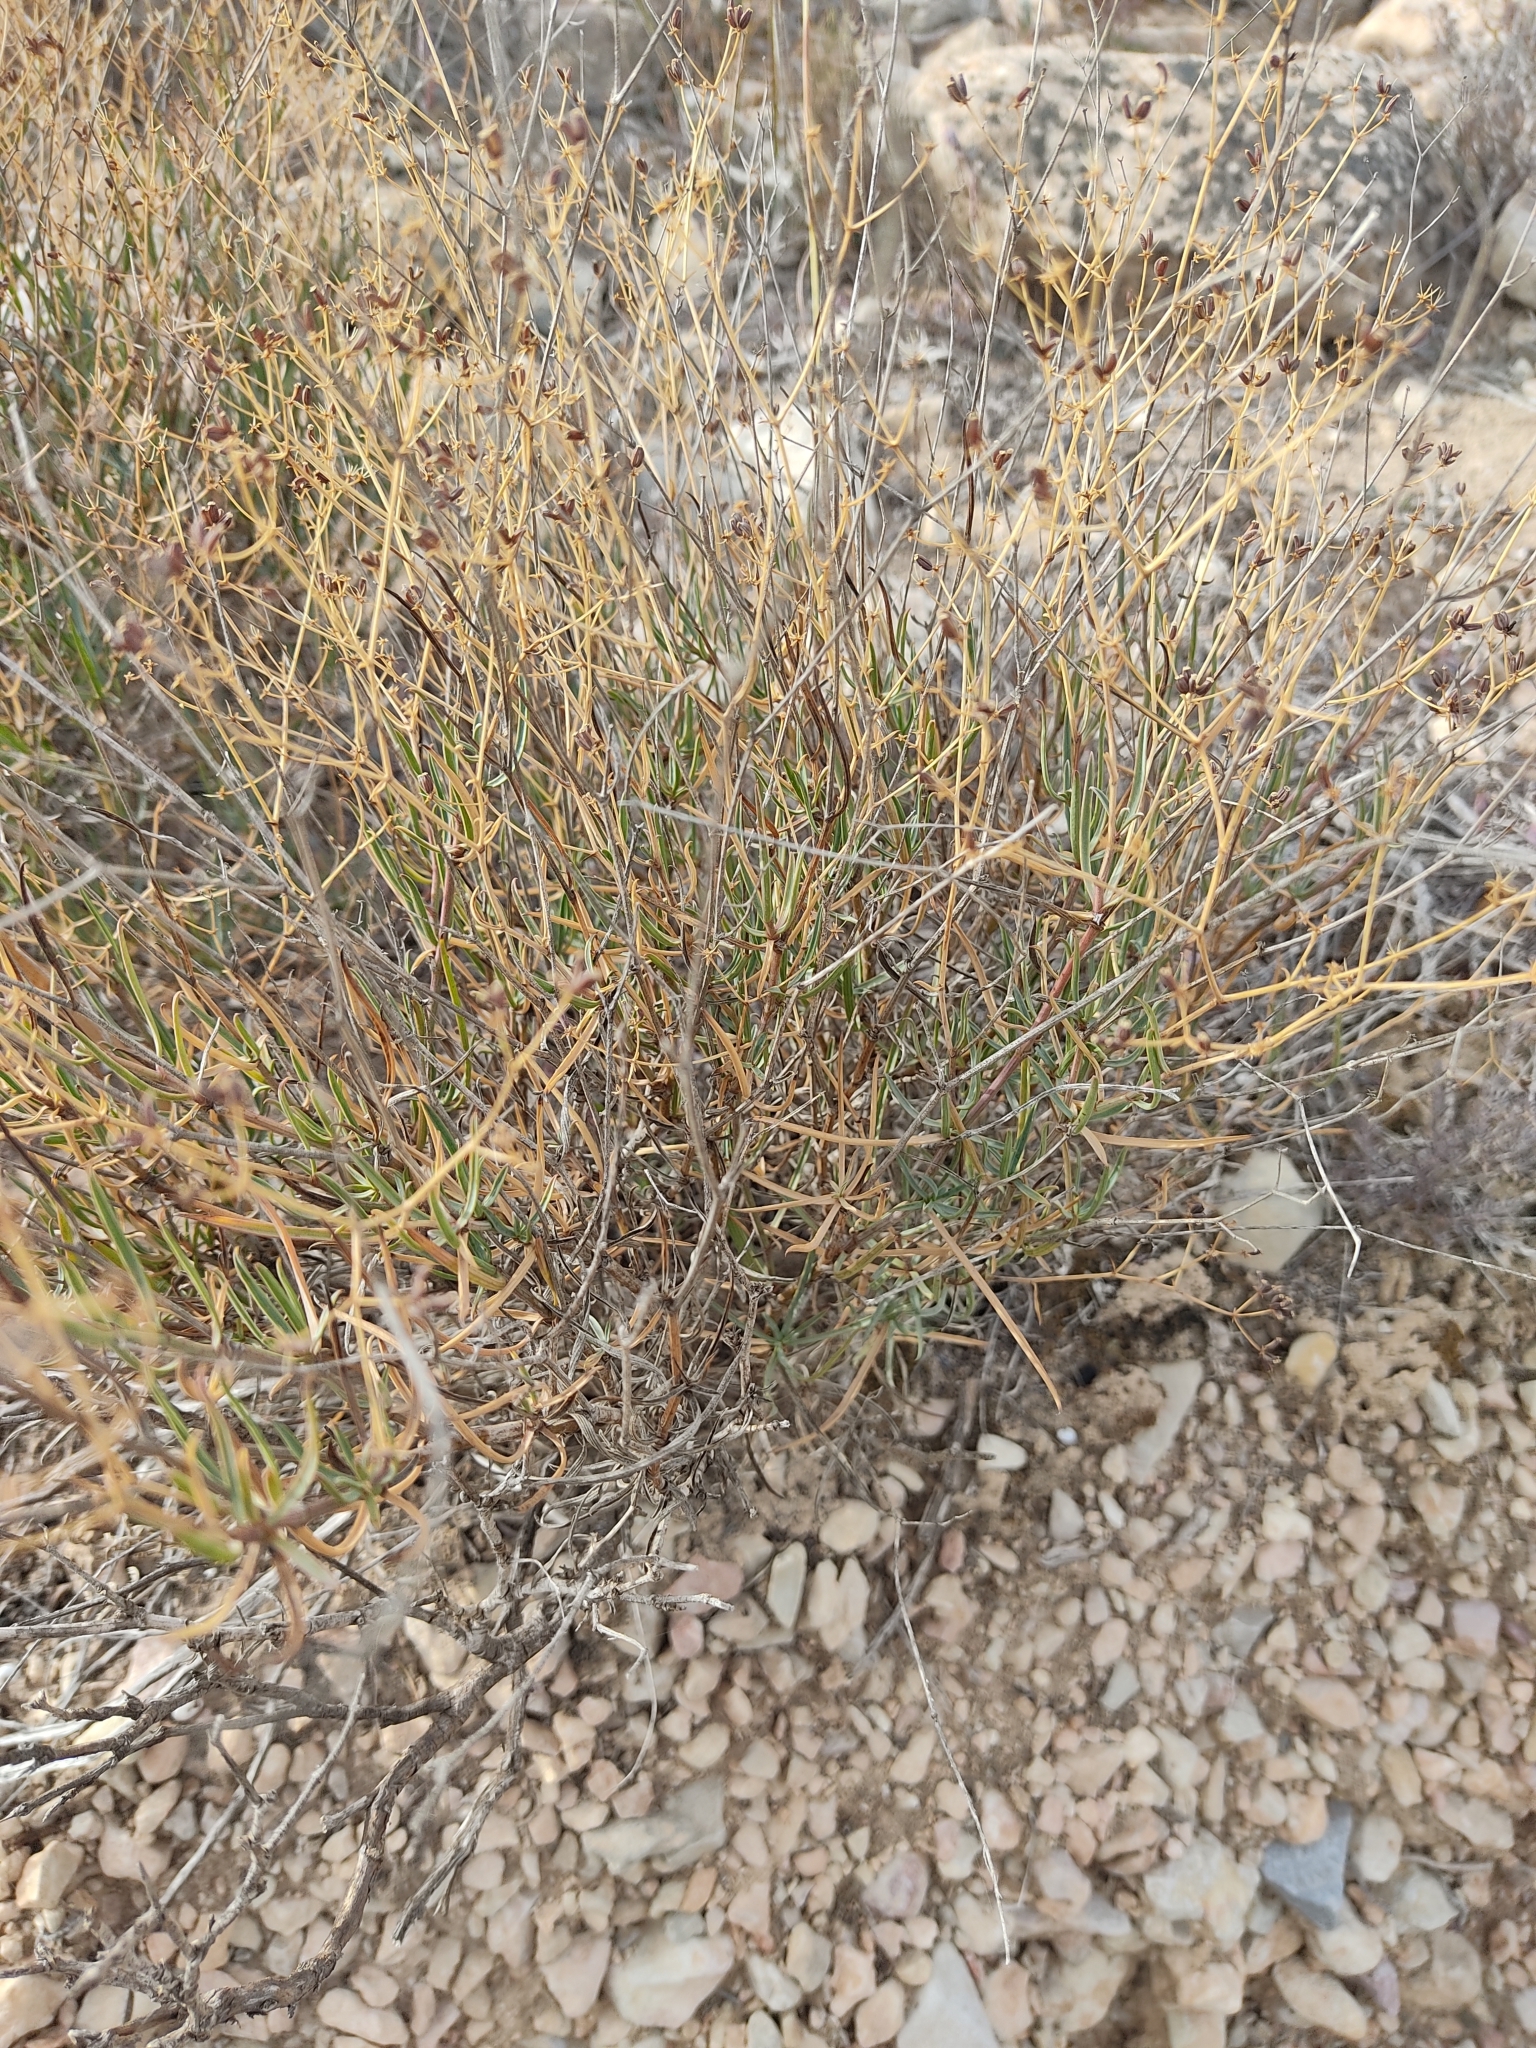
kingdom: Plantae
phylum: Tracheophyta
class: Magnoliopsida
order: Apiales
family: Apiaceae
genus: Bupleurum
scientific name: Bupleurum fruticescens
